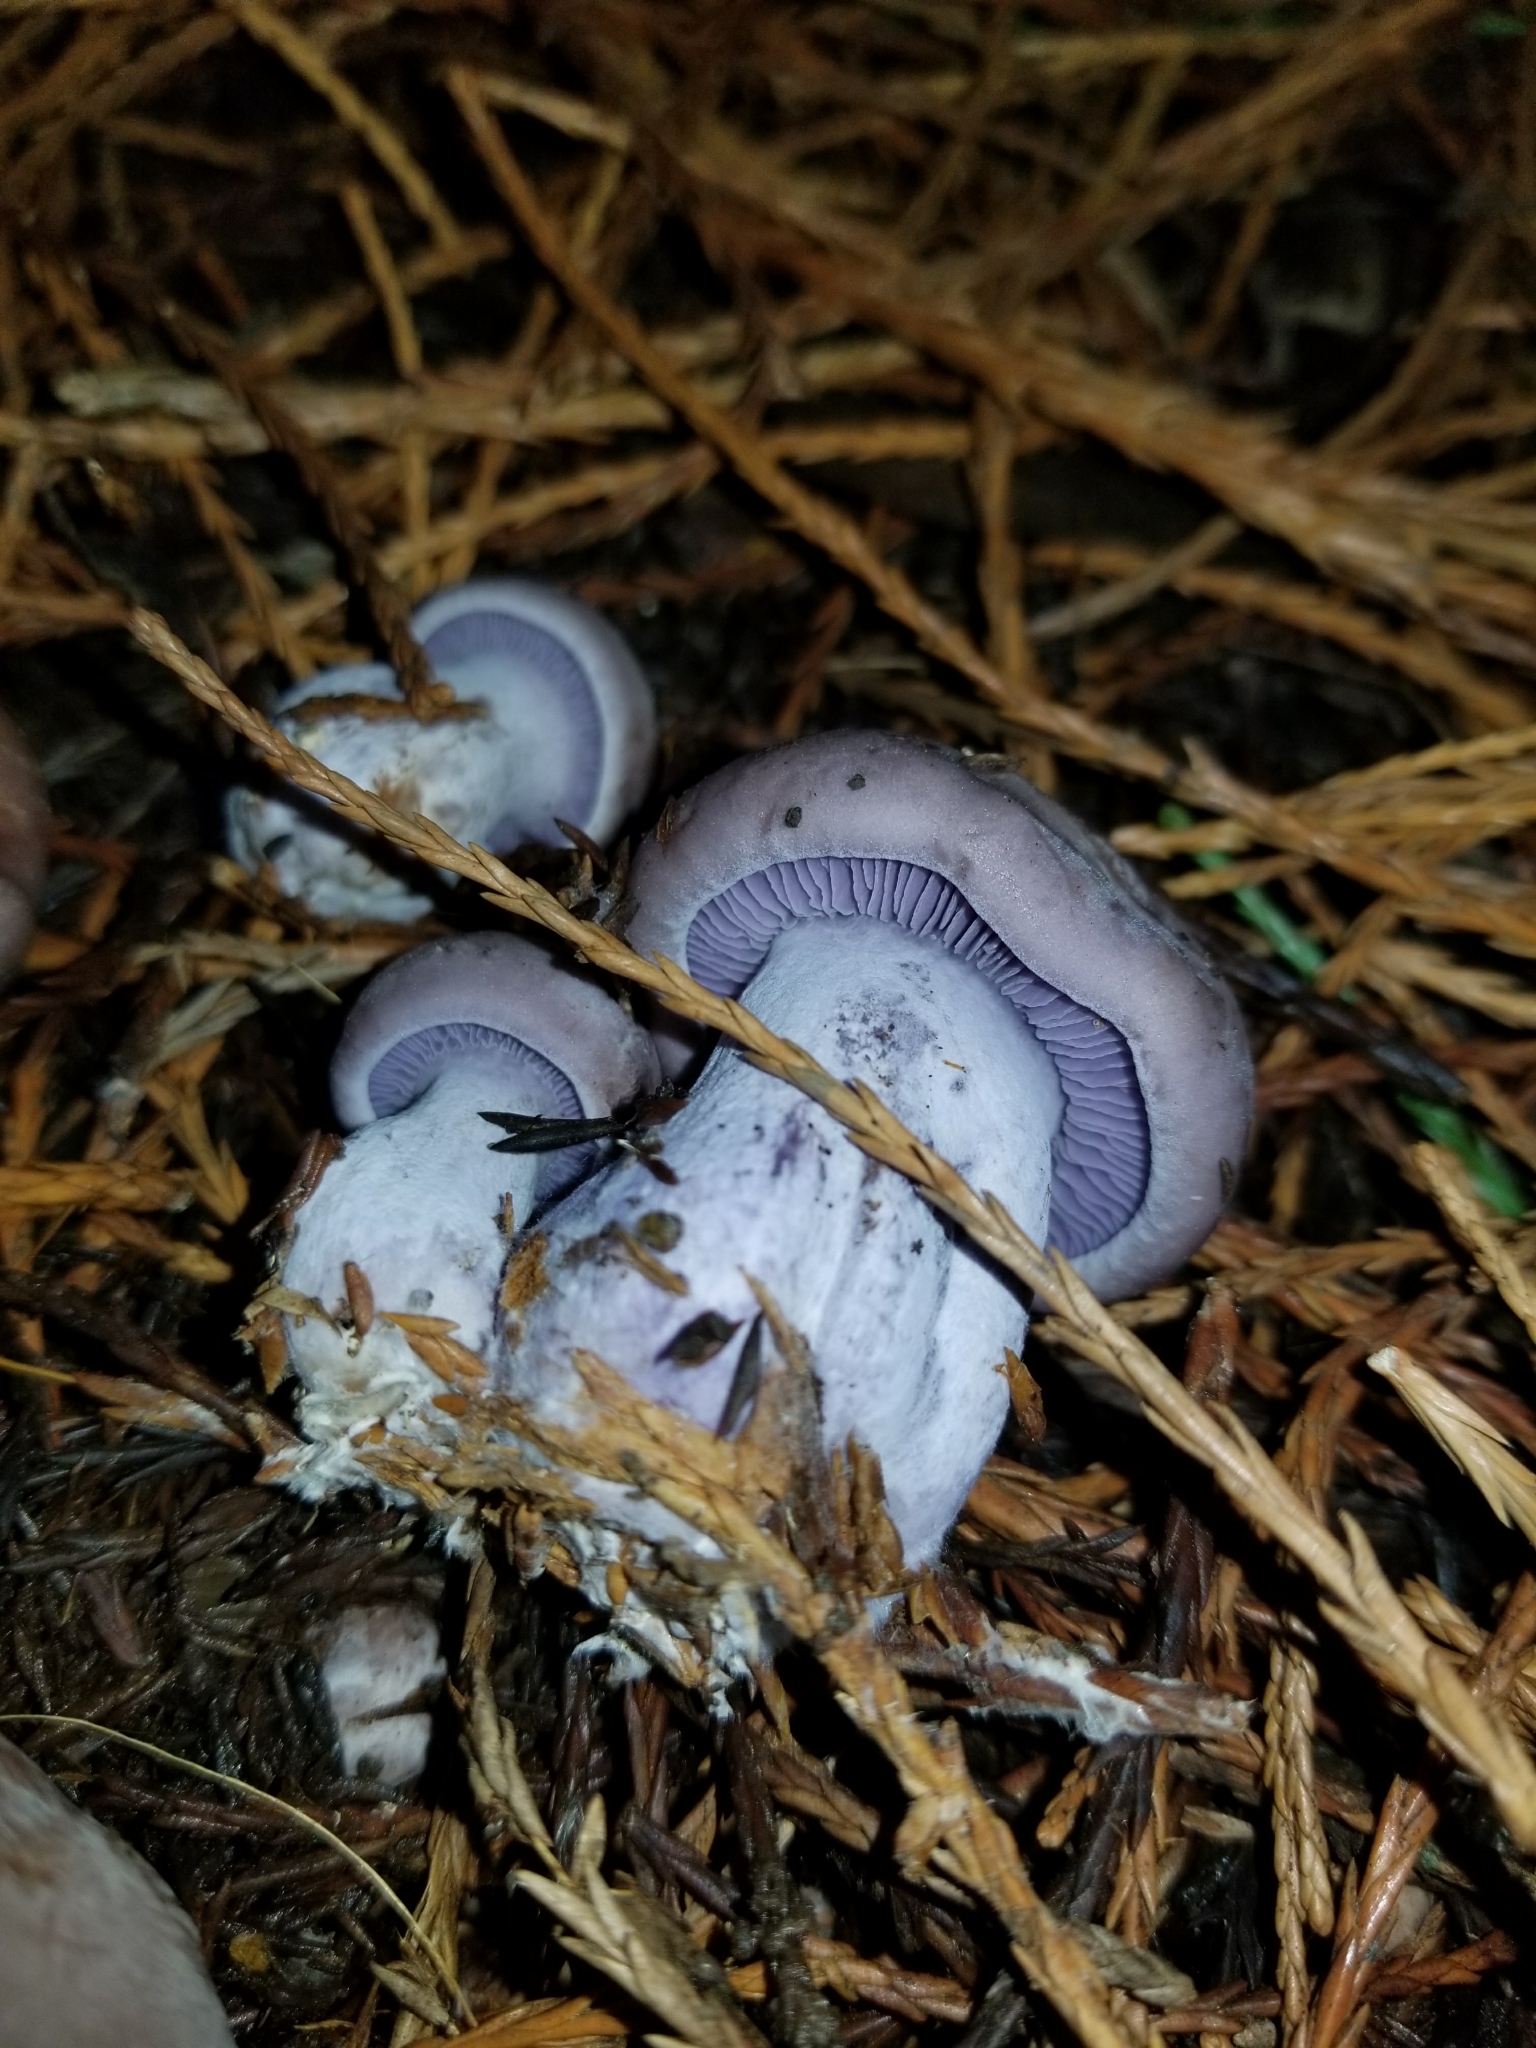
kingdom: Fungi
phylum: Basidiomycota
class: Agaricomycetes
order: Agaricales
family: Tricholomataceae
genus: Collybia
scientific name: Collybia
